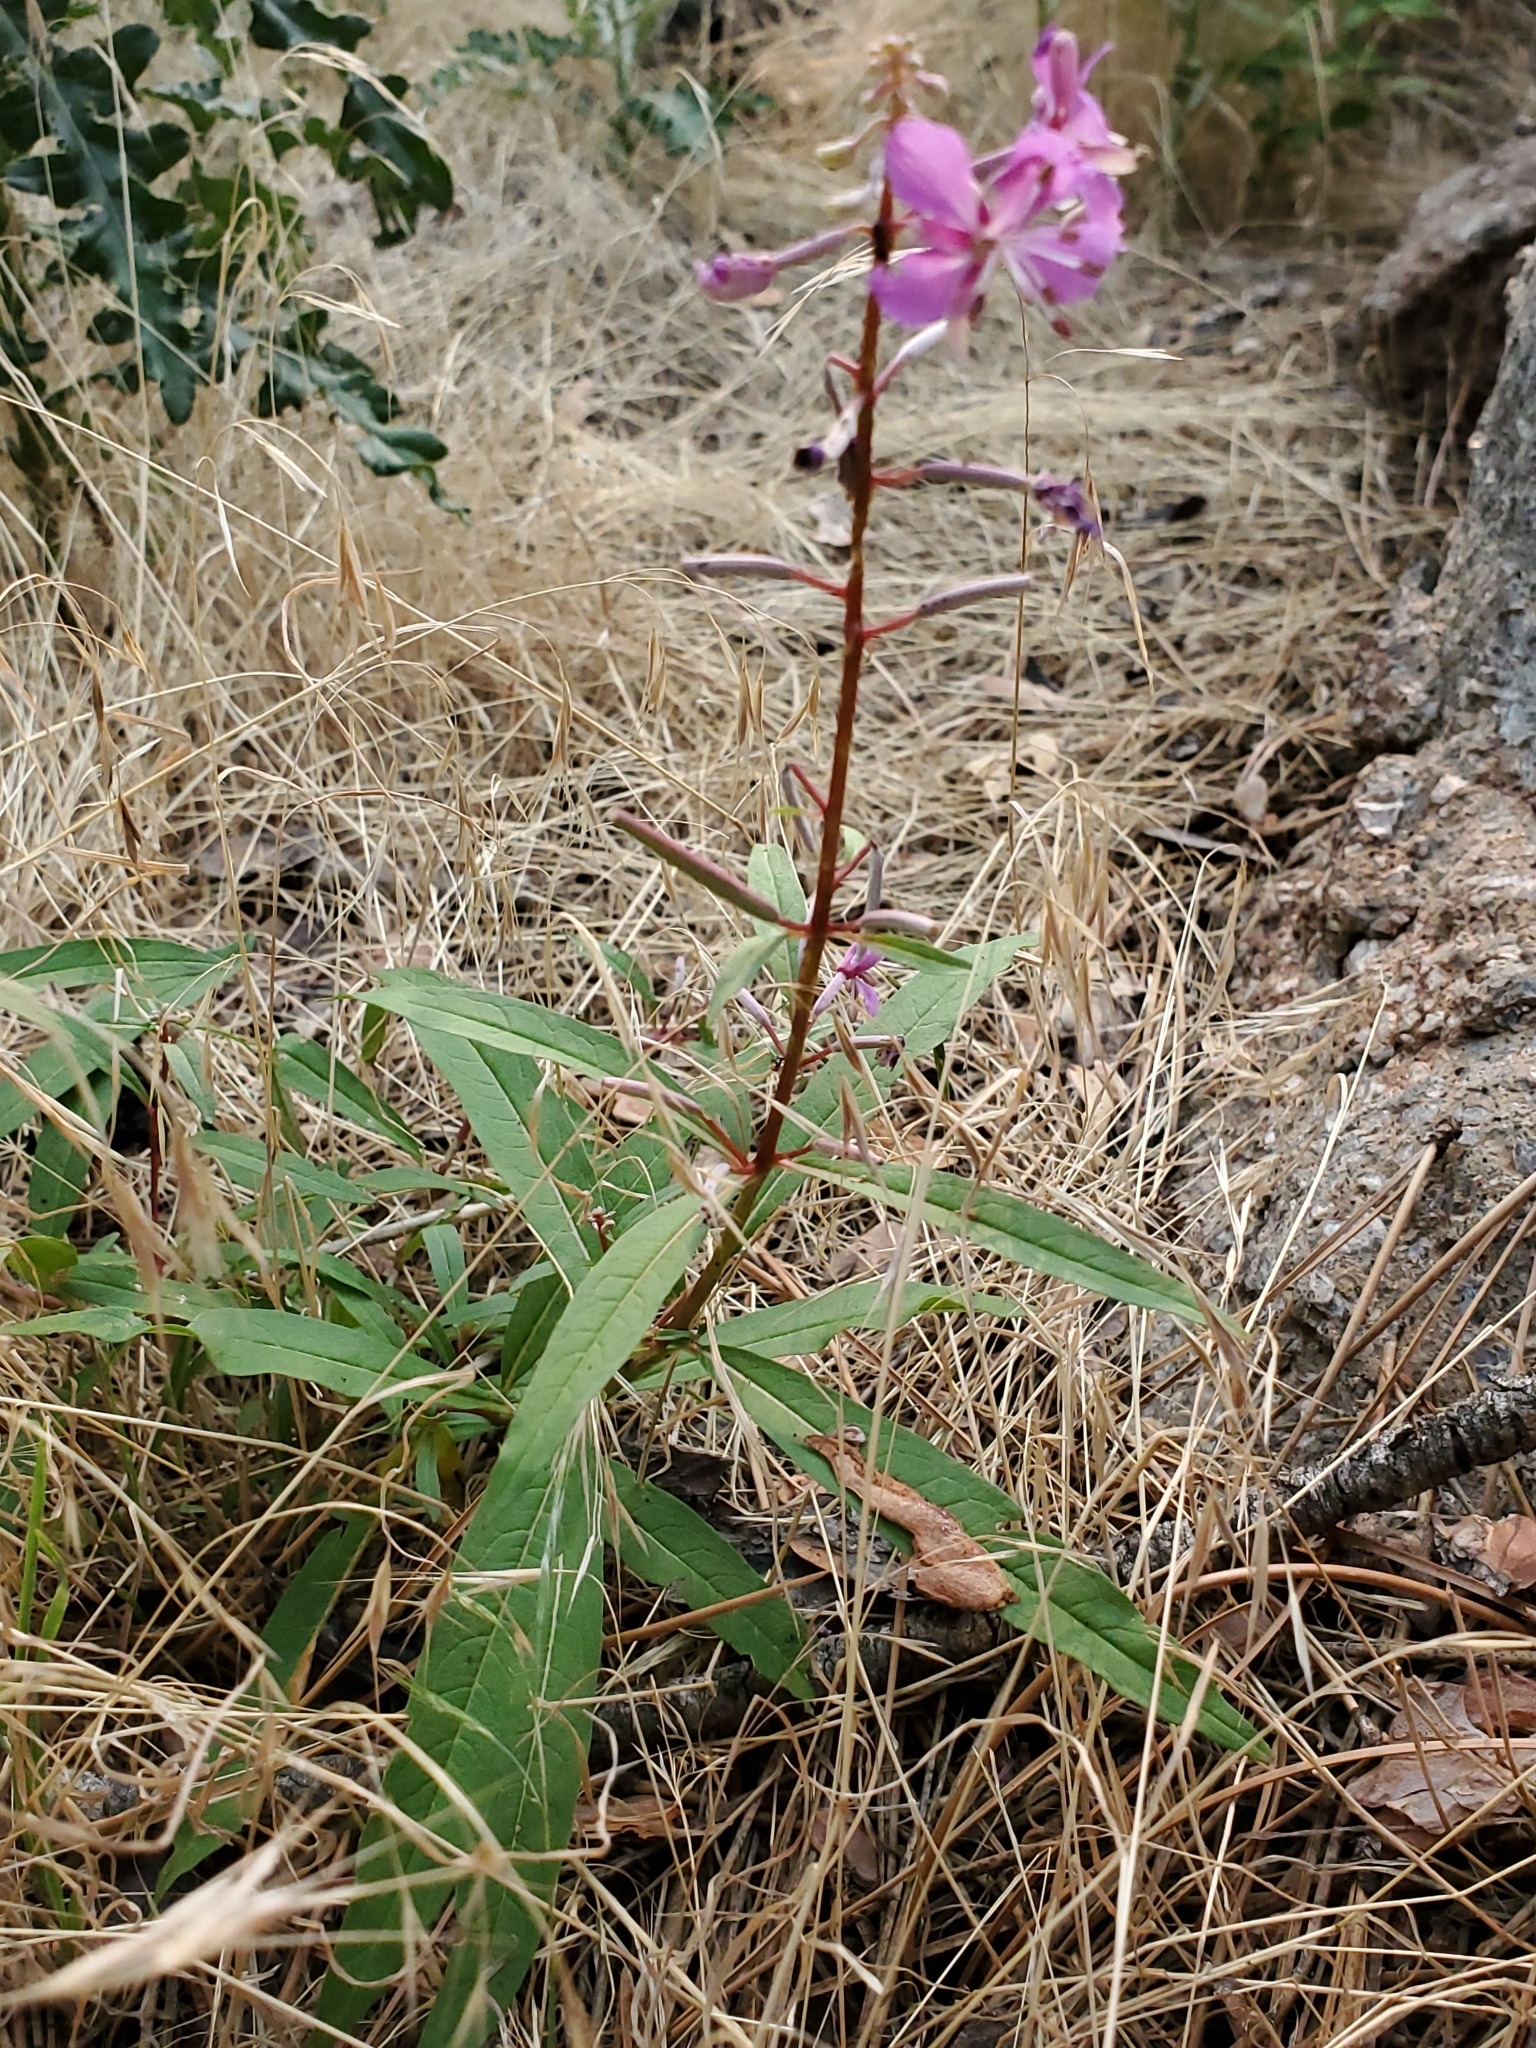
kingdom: Plantae
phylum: Tracheophyta
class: Magnoliopsida
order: Myrtales
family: Onagraceae
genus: Chamaenerion
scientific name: Chamaenerion angustifolium
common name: Fireweed
